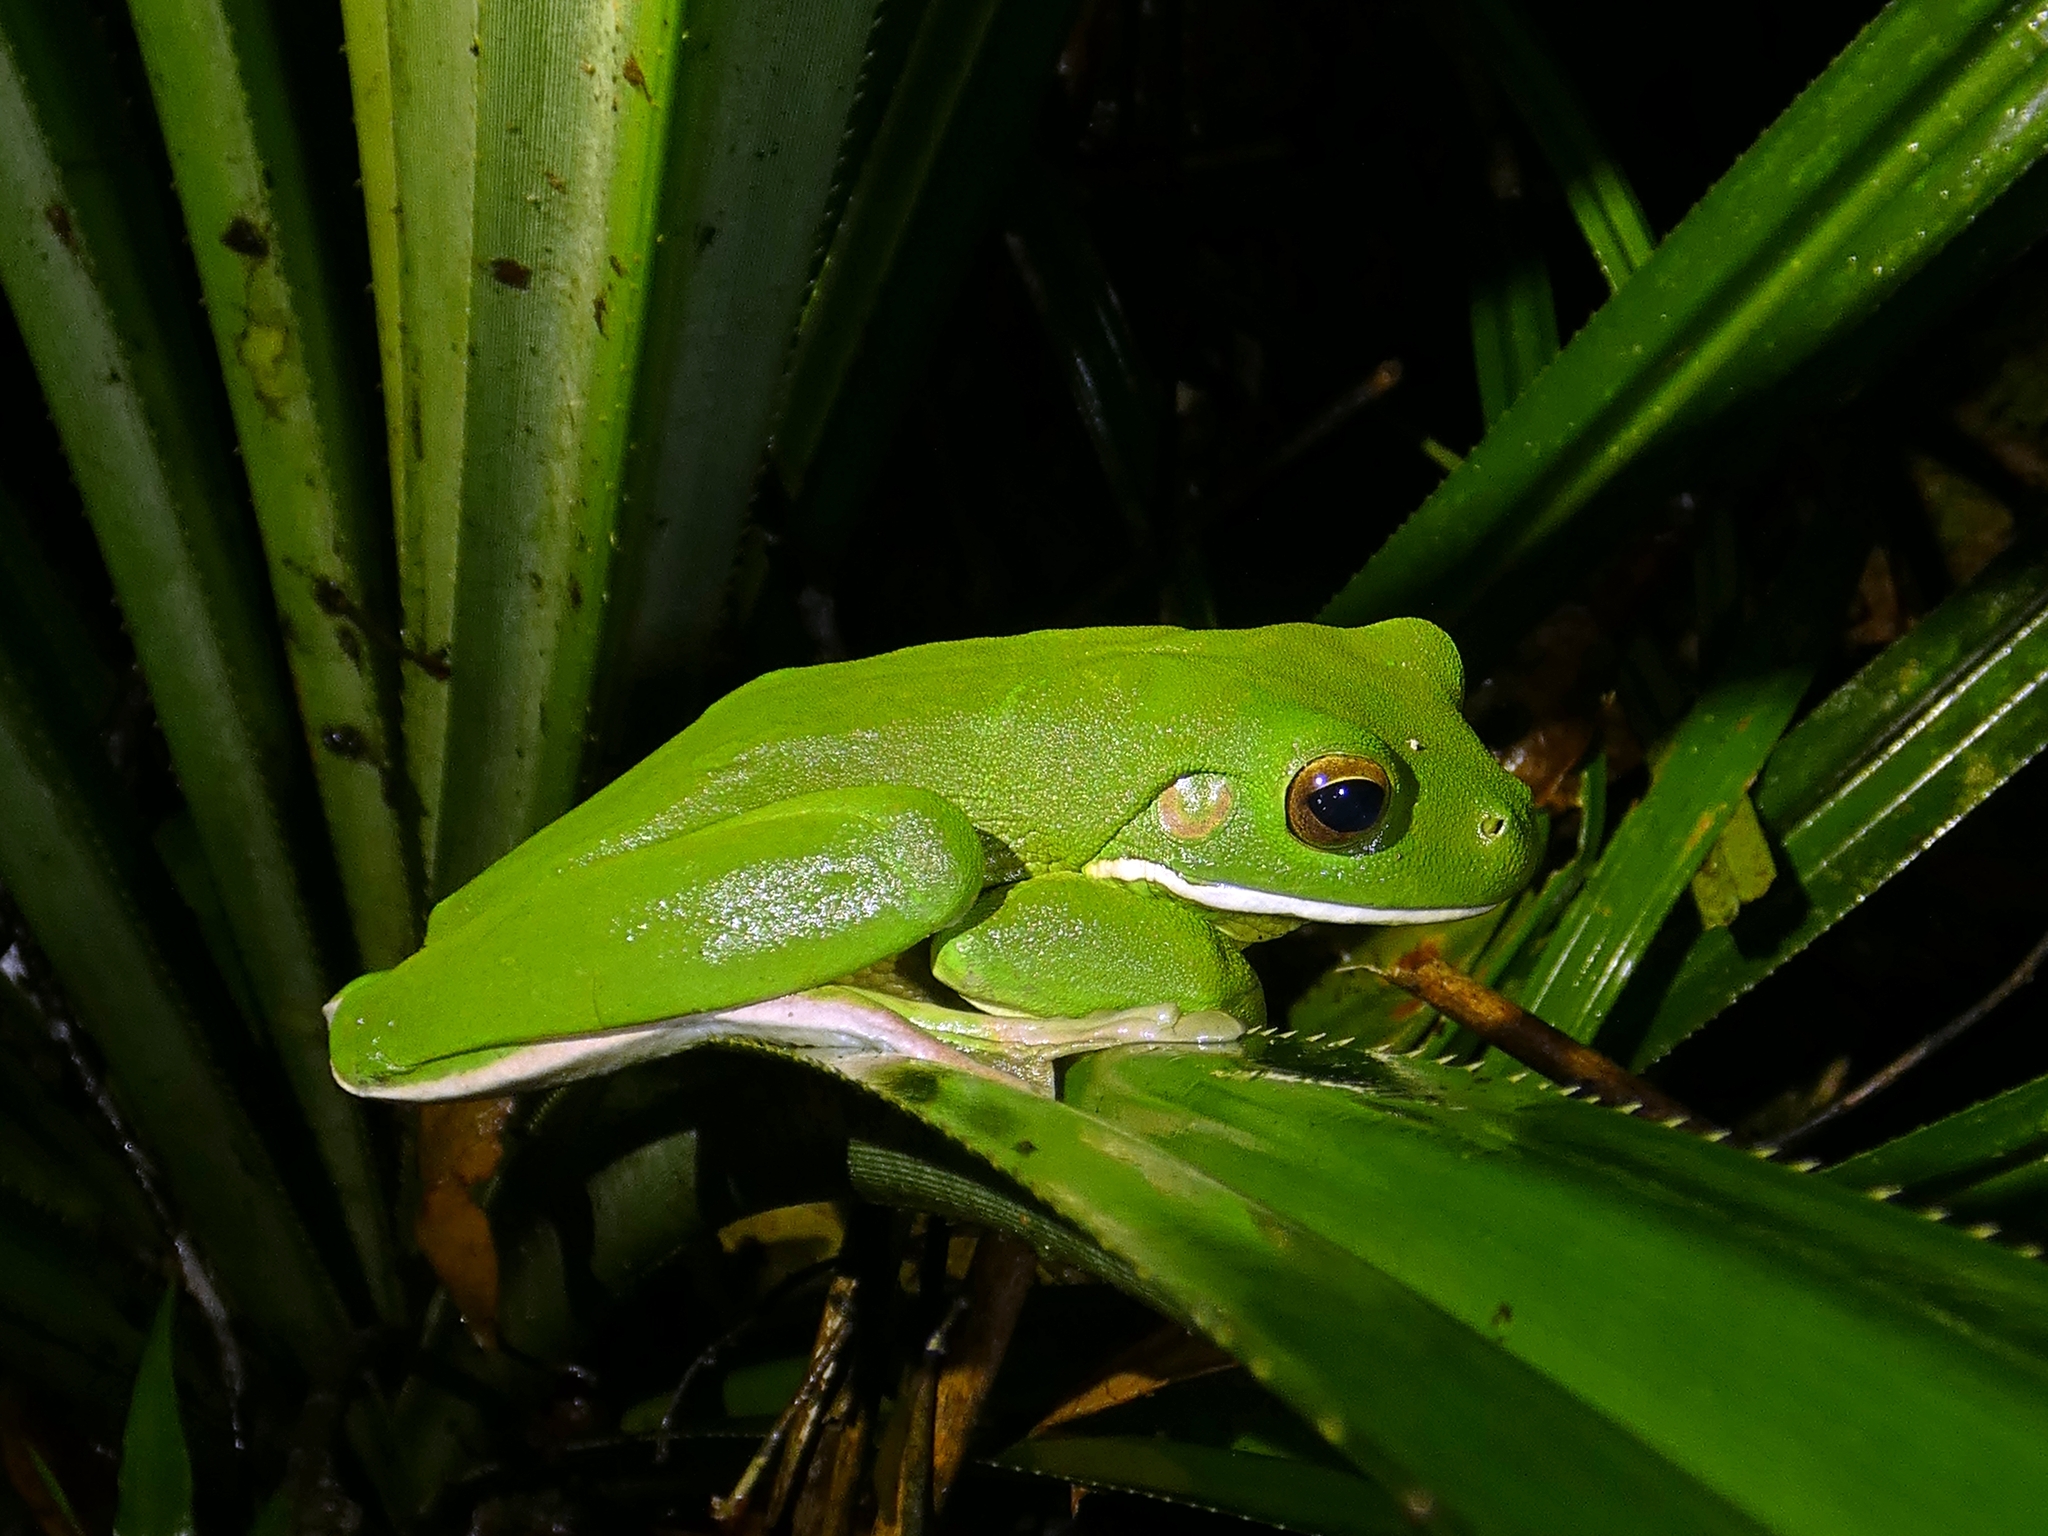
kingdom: Animalia
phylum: Chordata
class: Amphibia
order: Anura
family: Pelodryadidae
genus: Nyctimystes
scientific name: Nyctimystes infrafrenatus
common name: Australian giant treefrog
